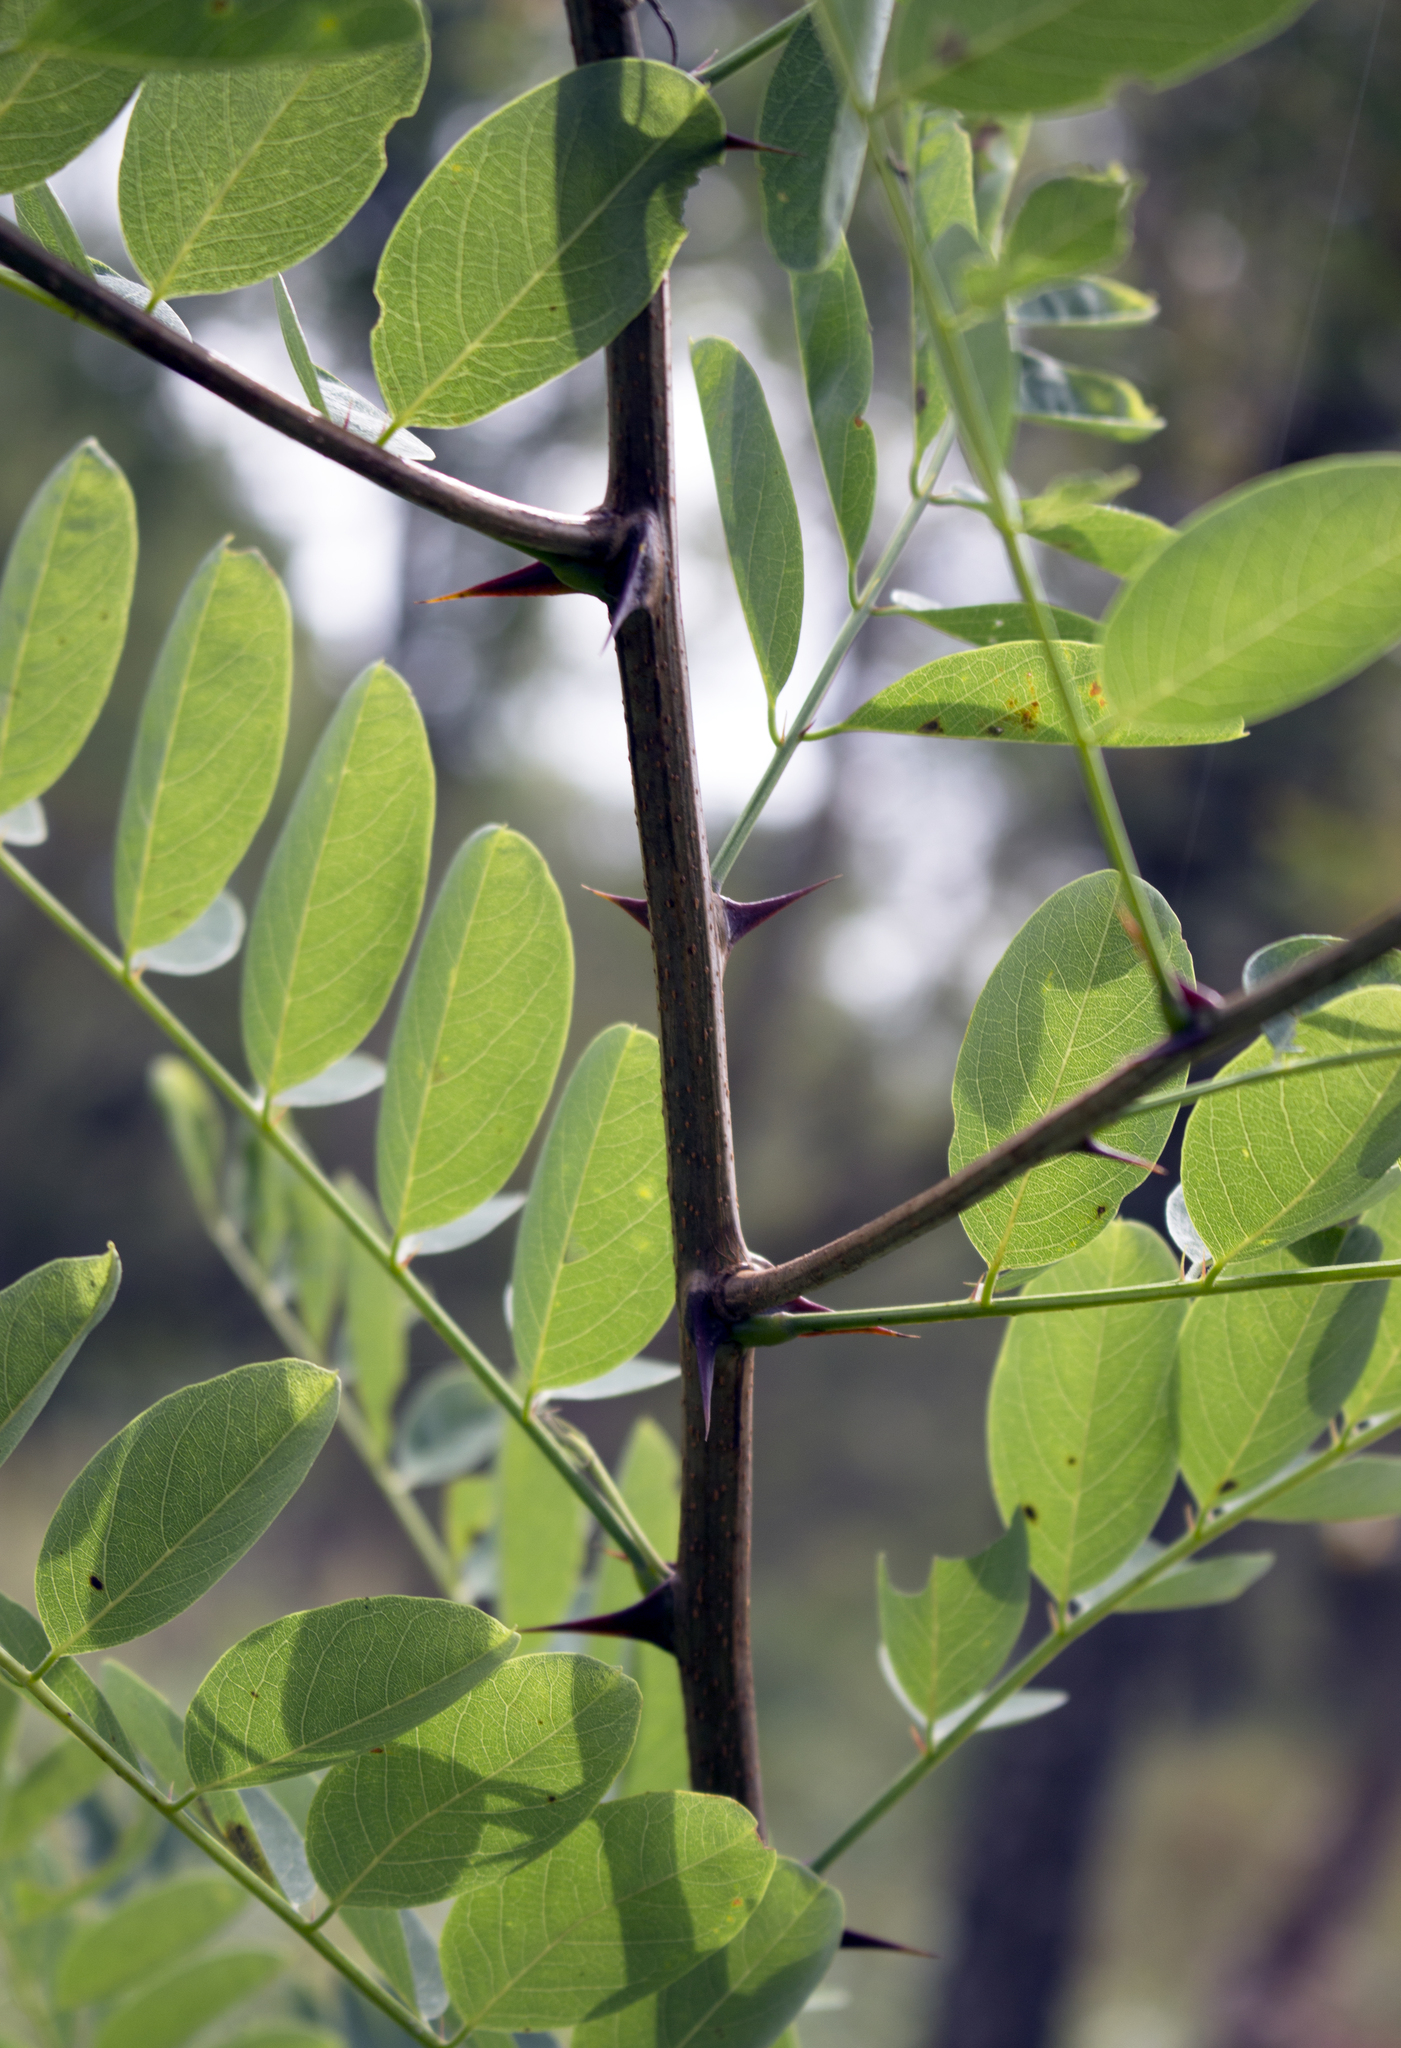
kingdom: Plantae
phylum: Tracheophyta
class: Magnoliopsida
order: Fabales
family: Fabaceae
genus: Robinia
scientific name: Robinia pseudoacacia
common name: Black locust
